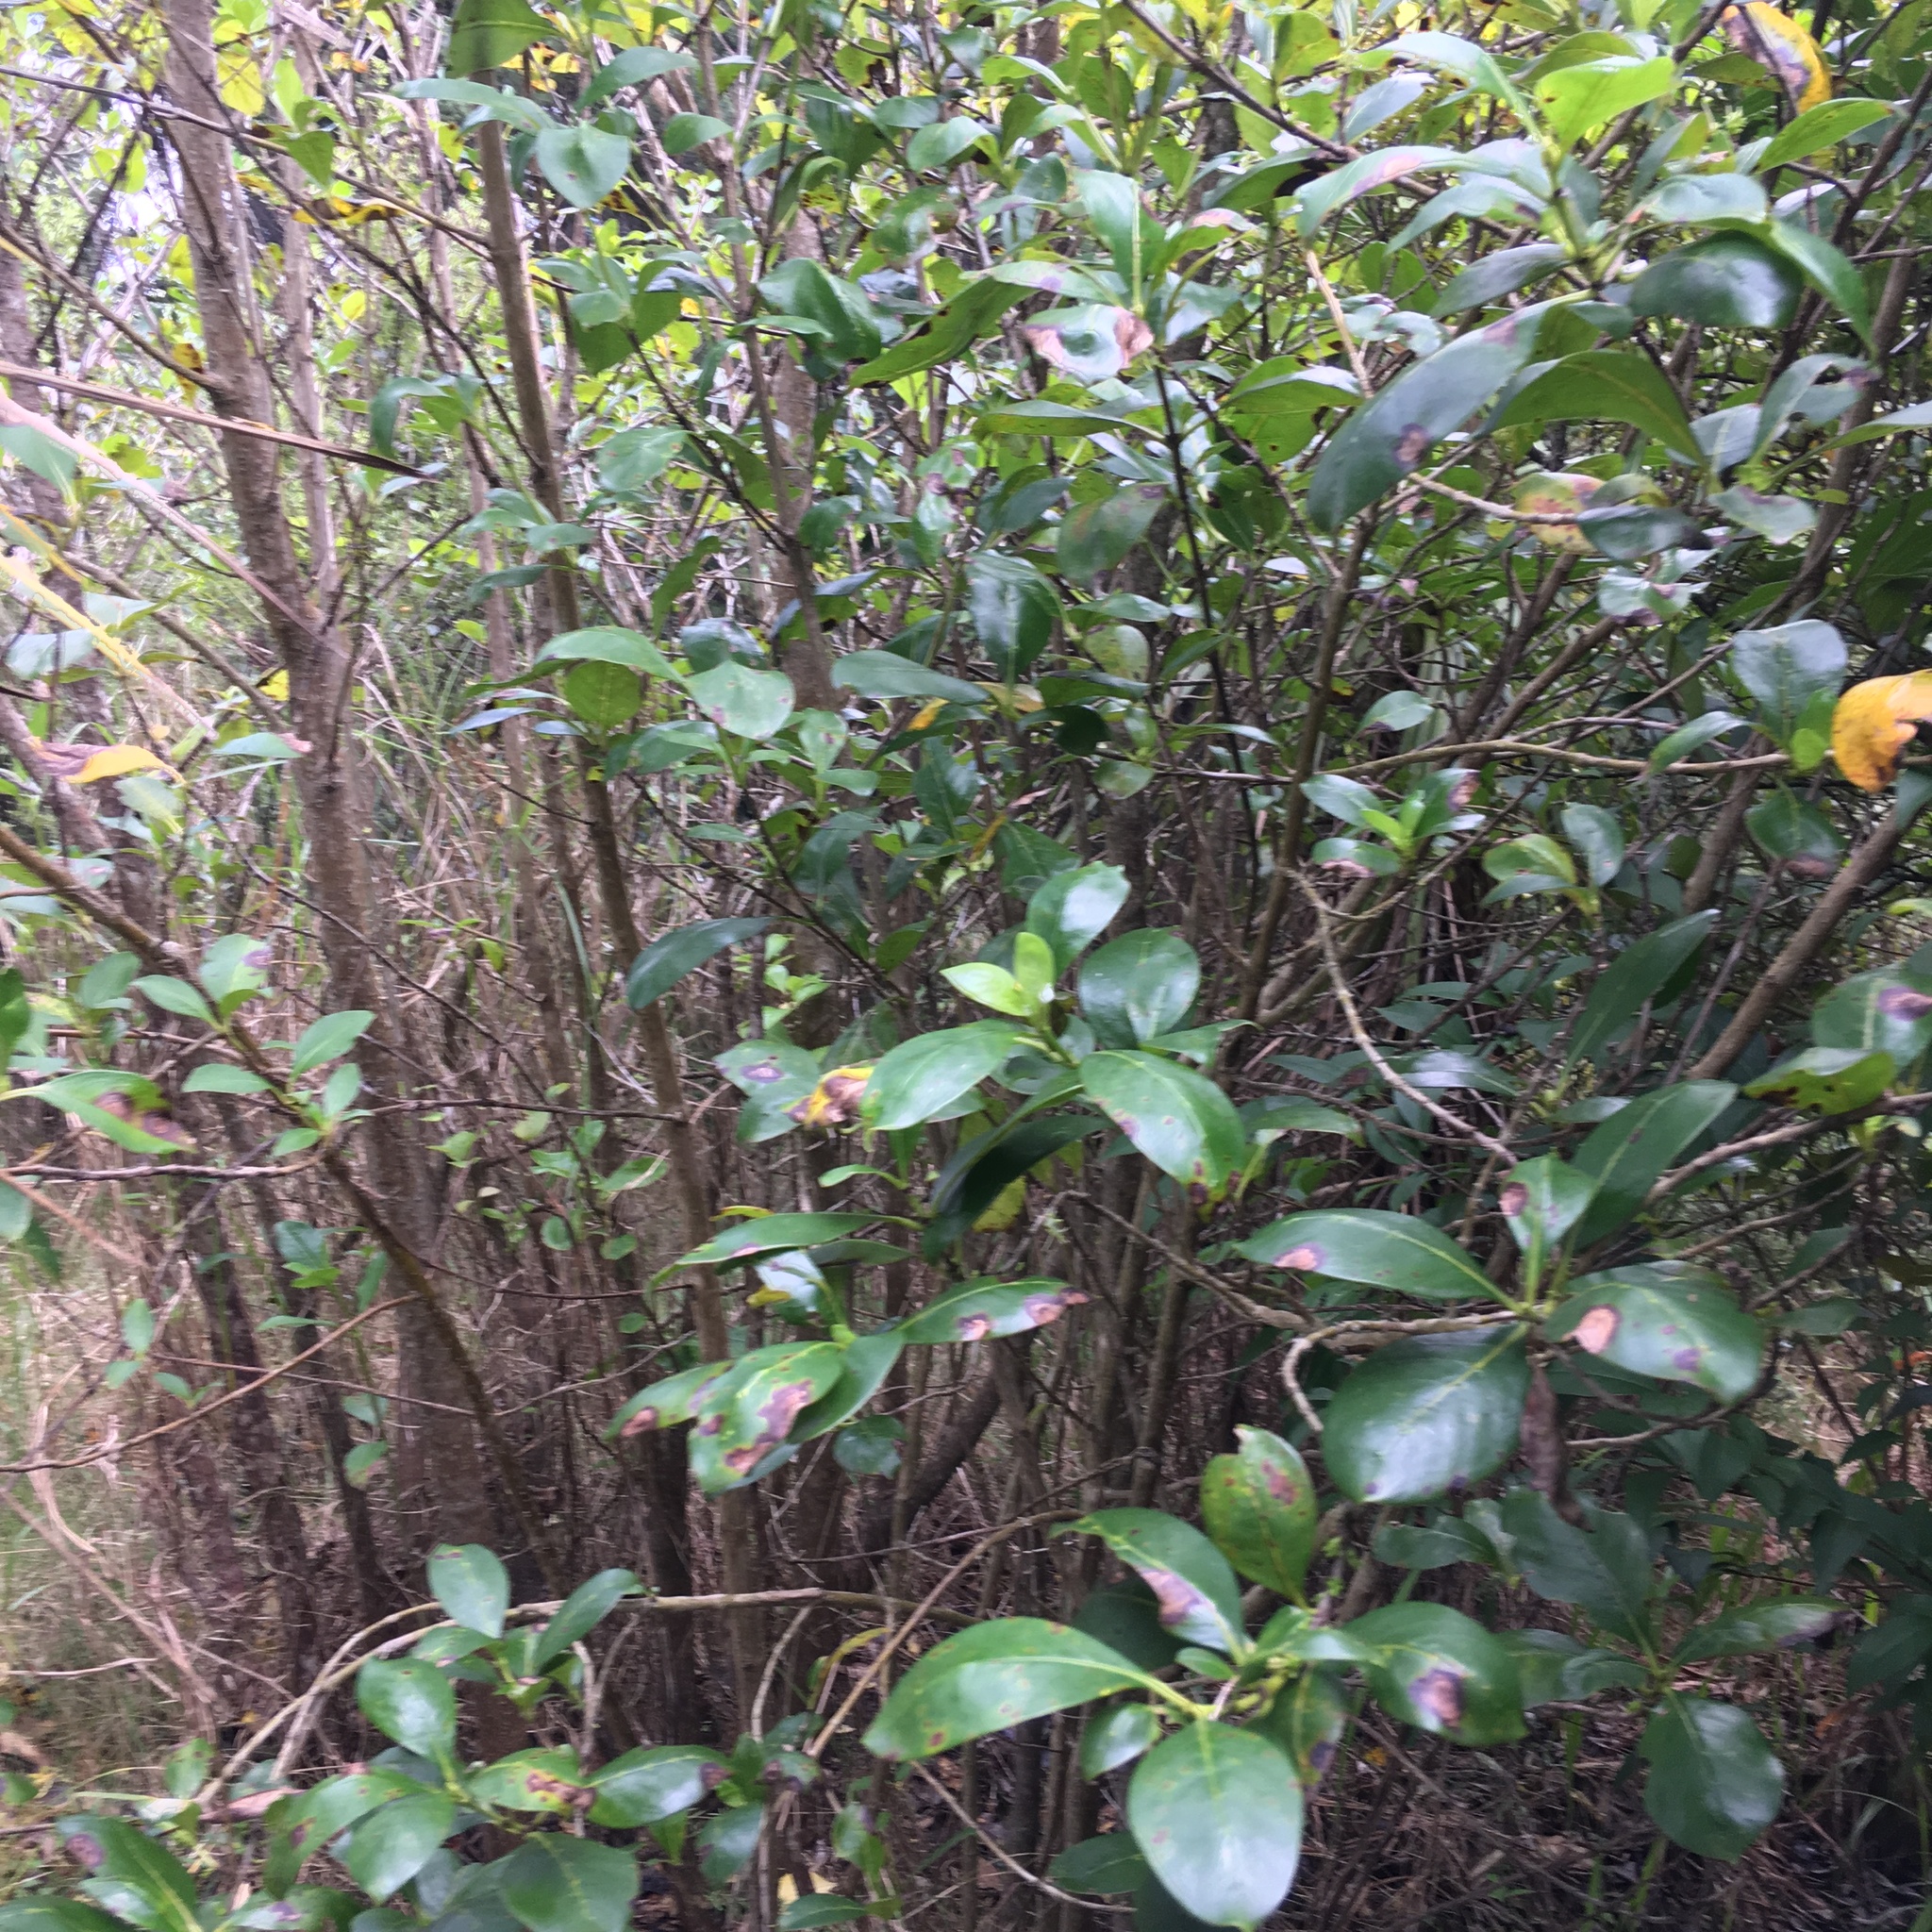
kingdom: Plantae
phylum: Tracheophyta
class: Magnoliopsida
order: Gentianales
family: Rubiaceae
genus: Coprosma
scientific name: Coprosma robusta
